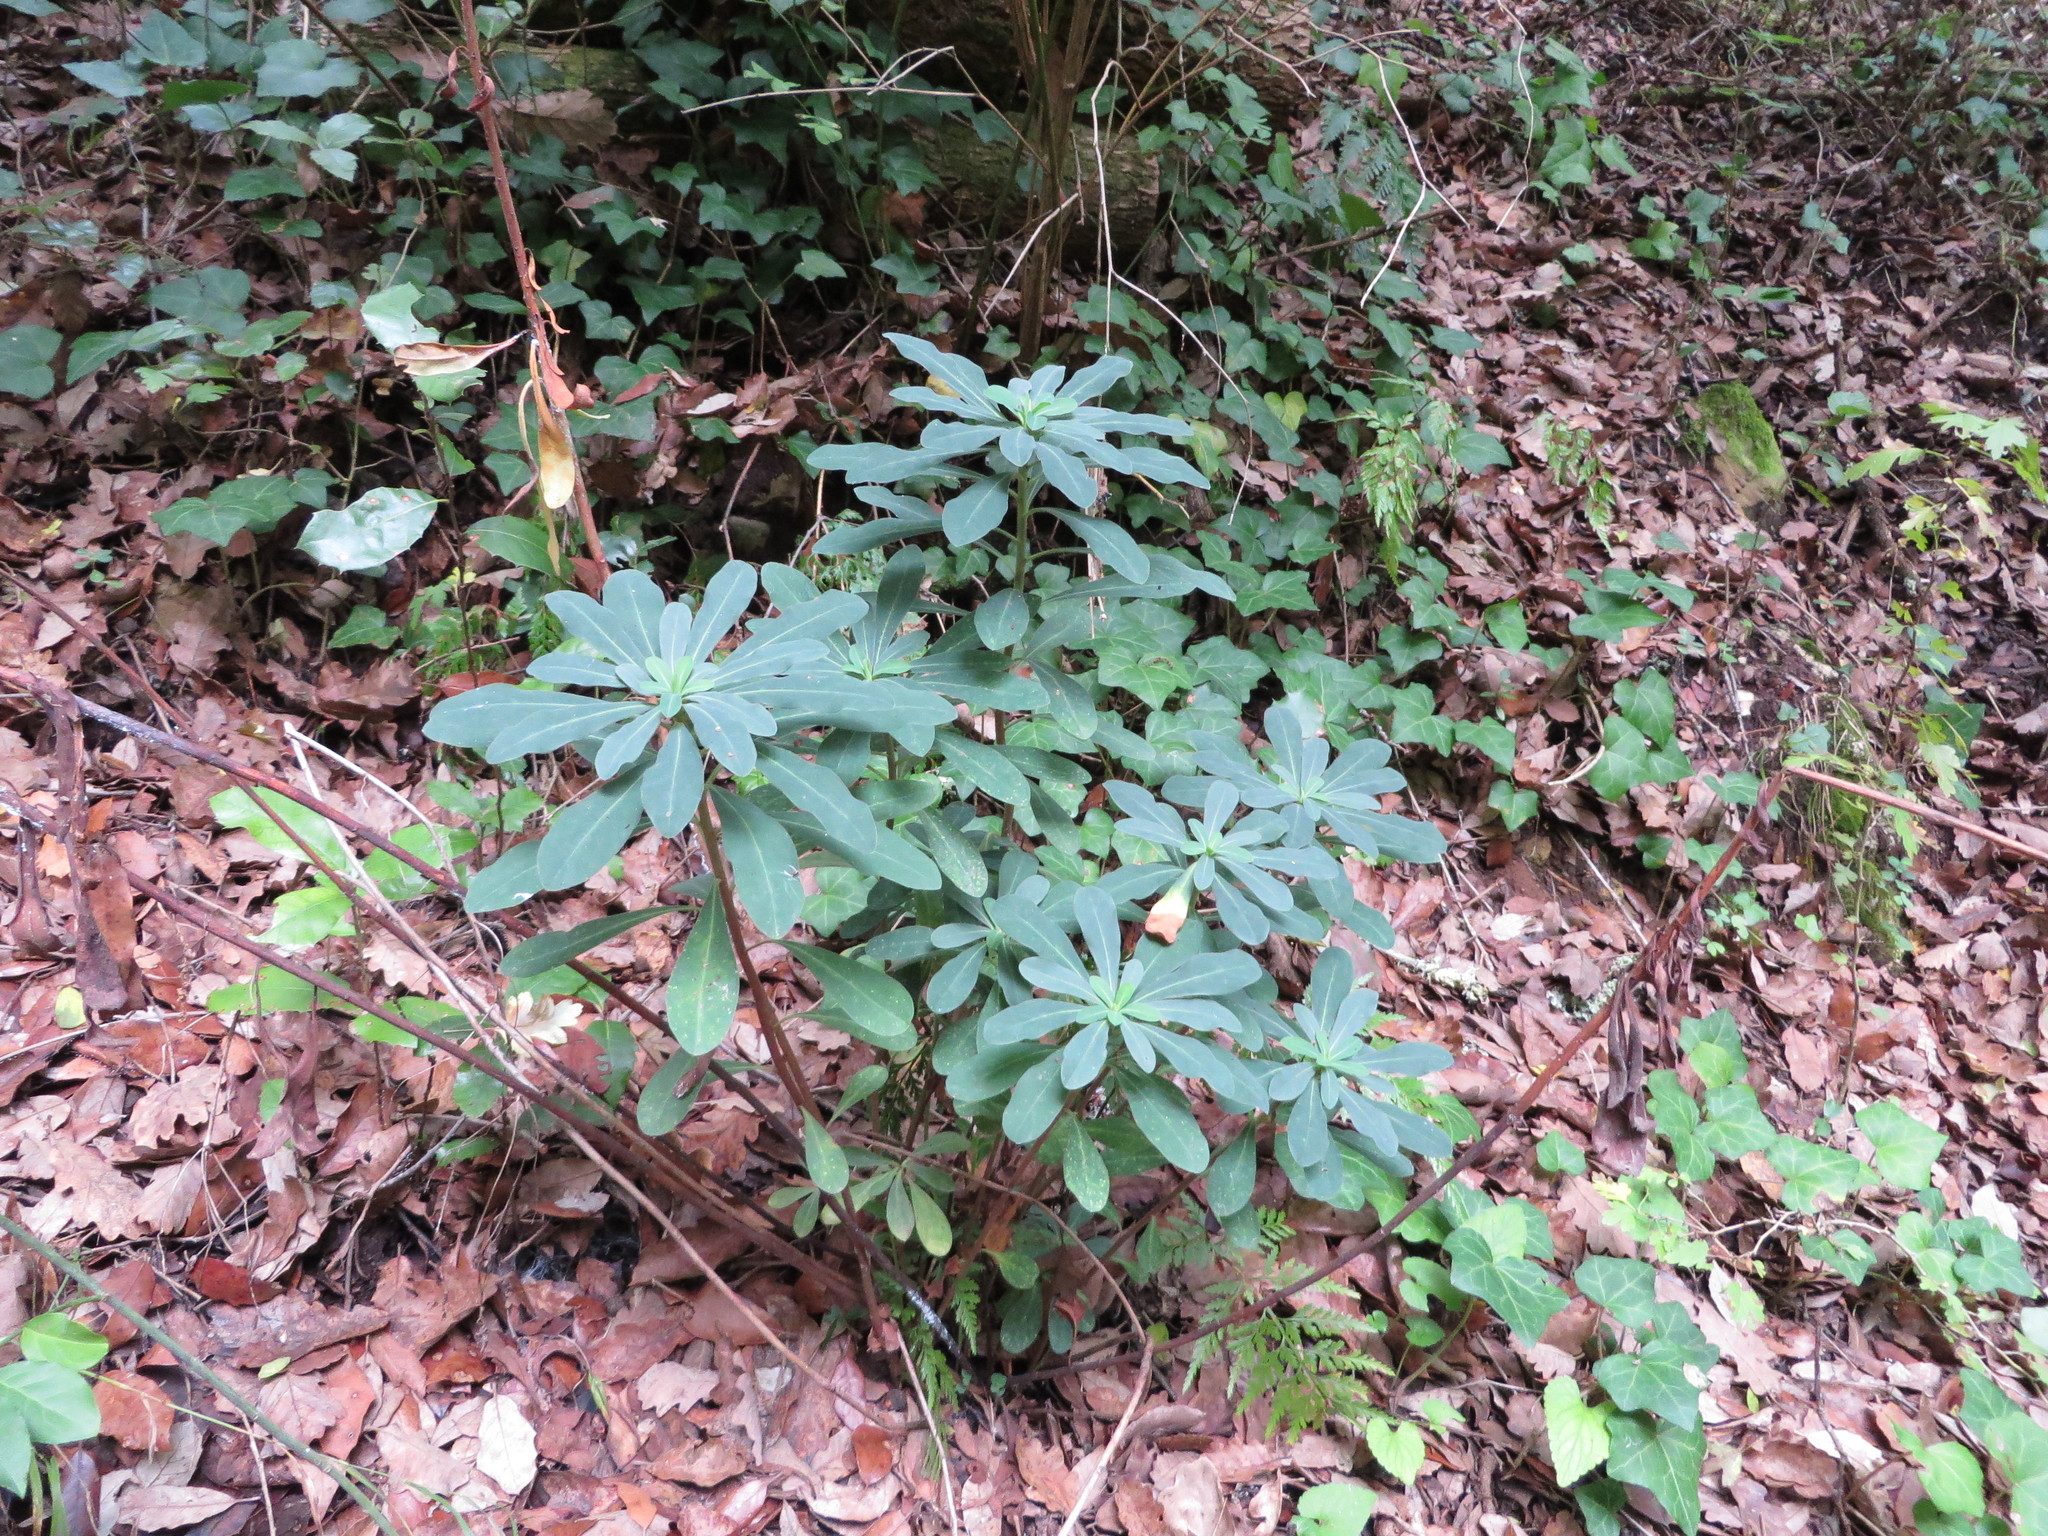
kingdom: Plantae
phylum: Tracheophyta
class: Magnoliopsida
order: Malpighiales
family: Euphorbiaceae
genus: Euphorbia
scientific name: Euphorbia amygdaloides
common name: Wood spurge
